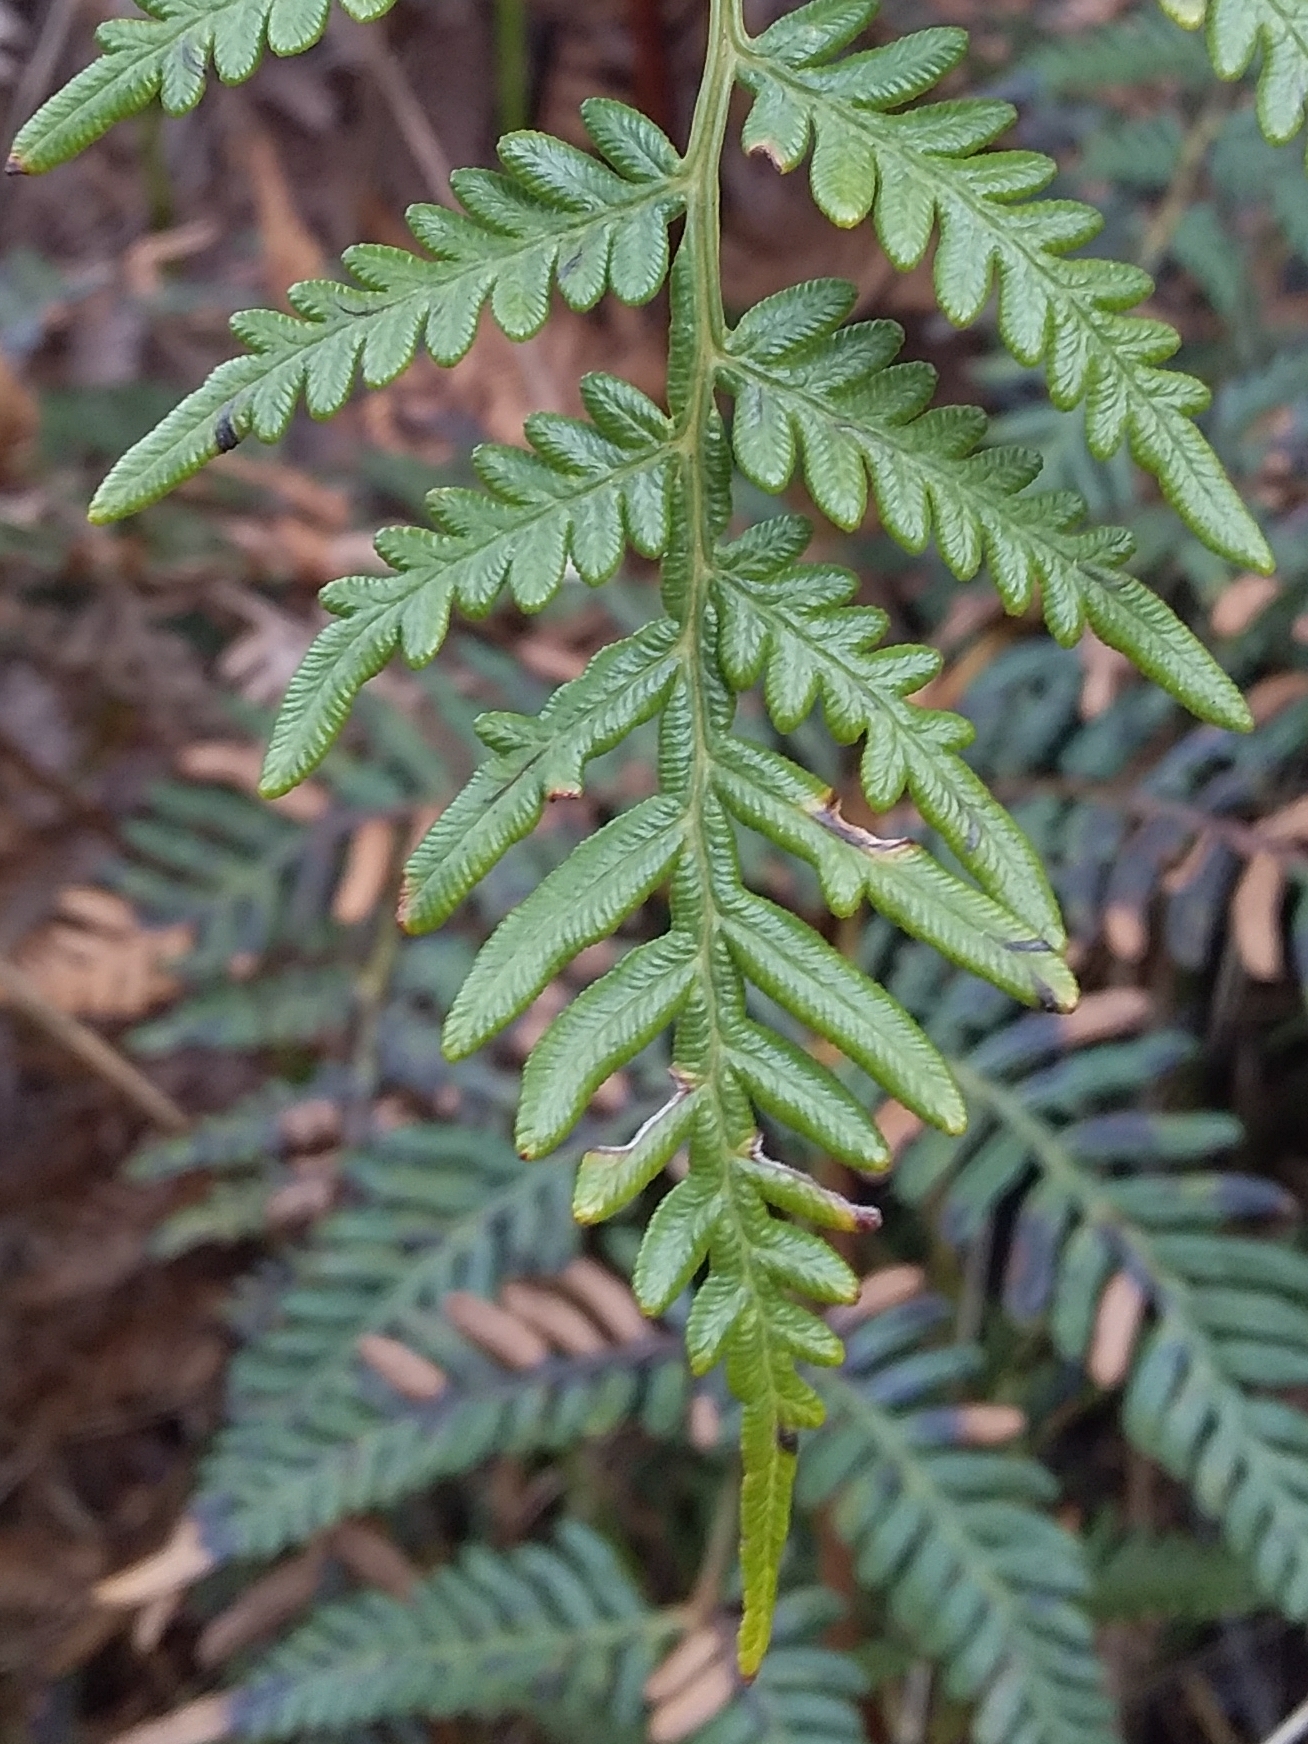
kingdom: Plantae
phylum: Tracheophyta
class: Polypodiopsida
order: Polypodiales
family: Dennstaedtiaceae
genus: Pteridium
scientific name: Pteridium esculentum
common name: Bracken fern
